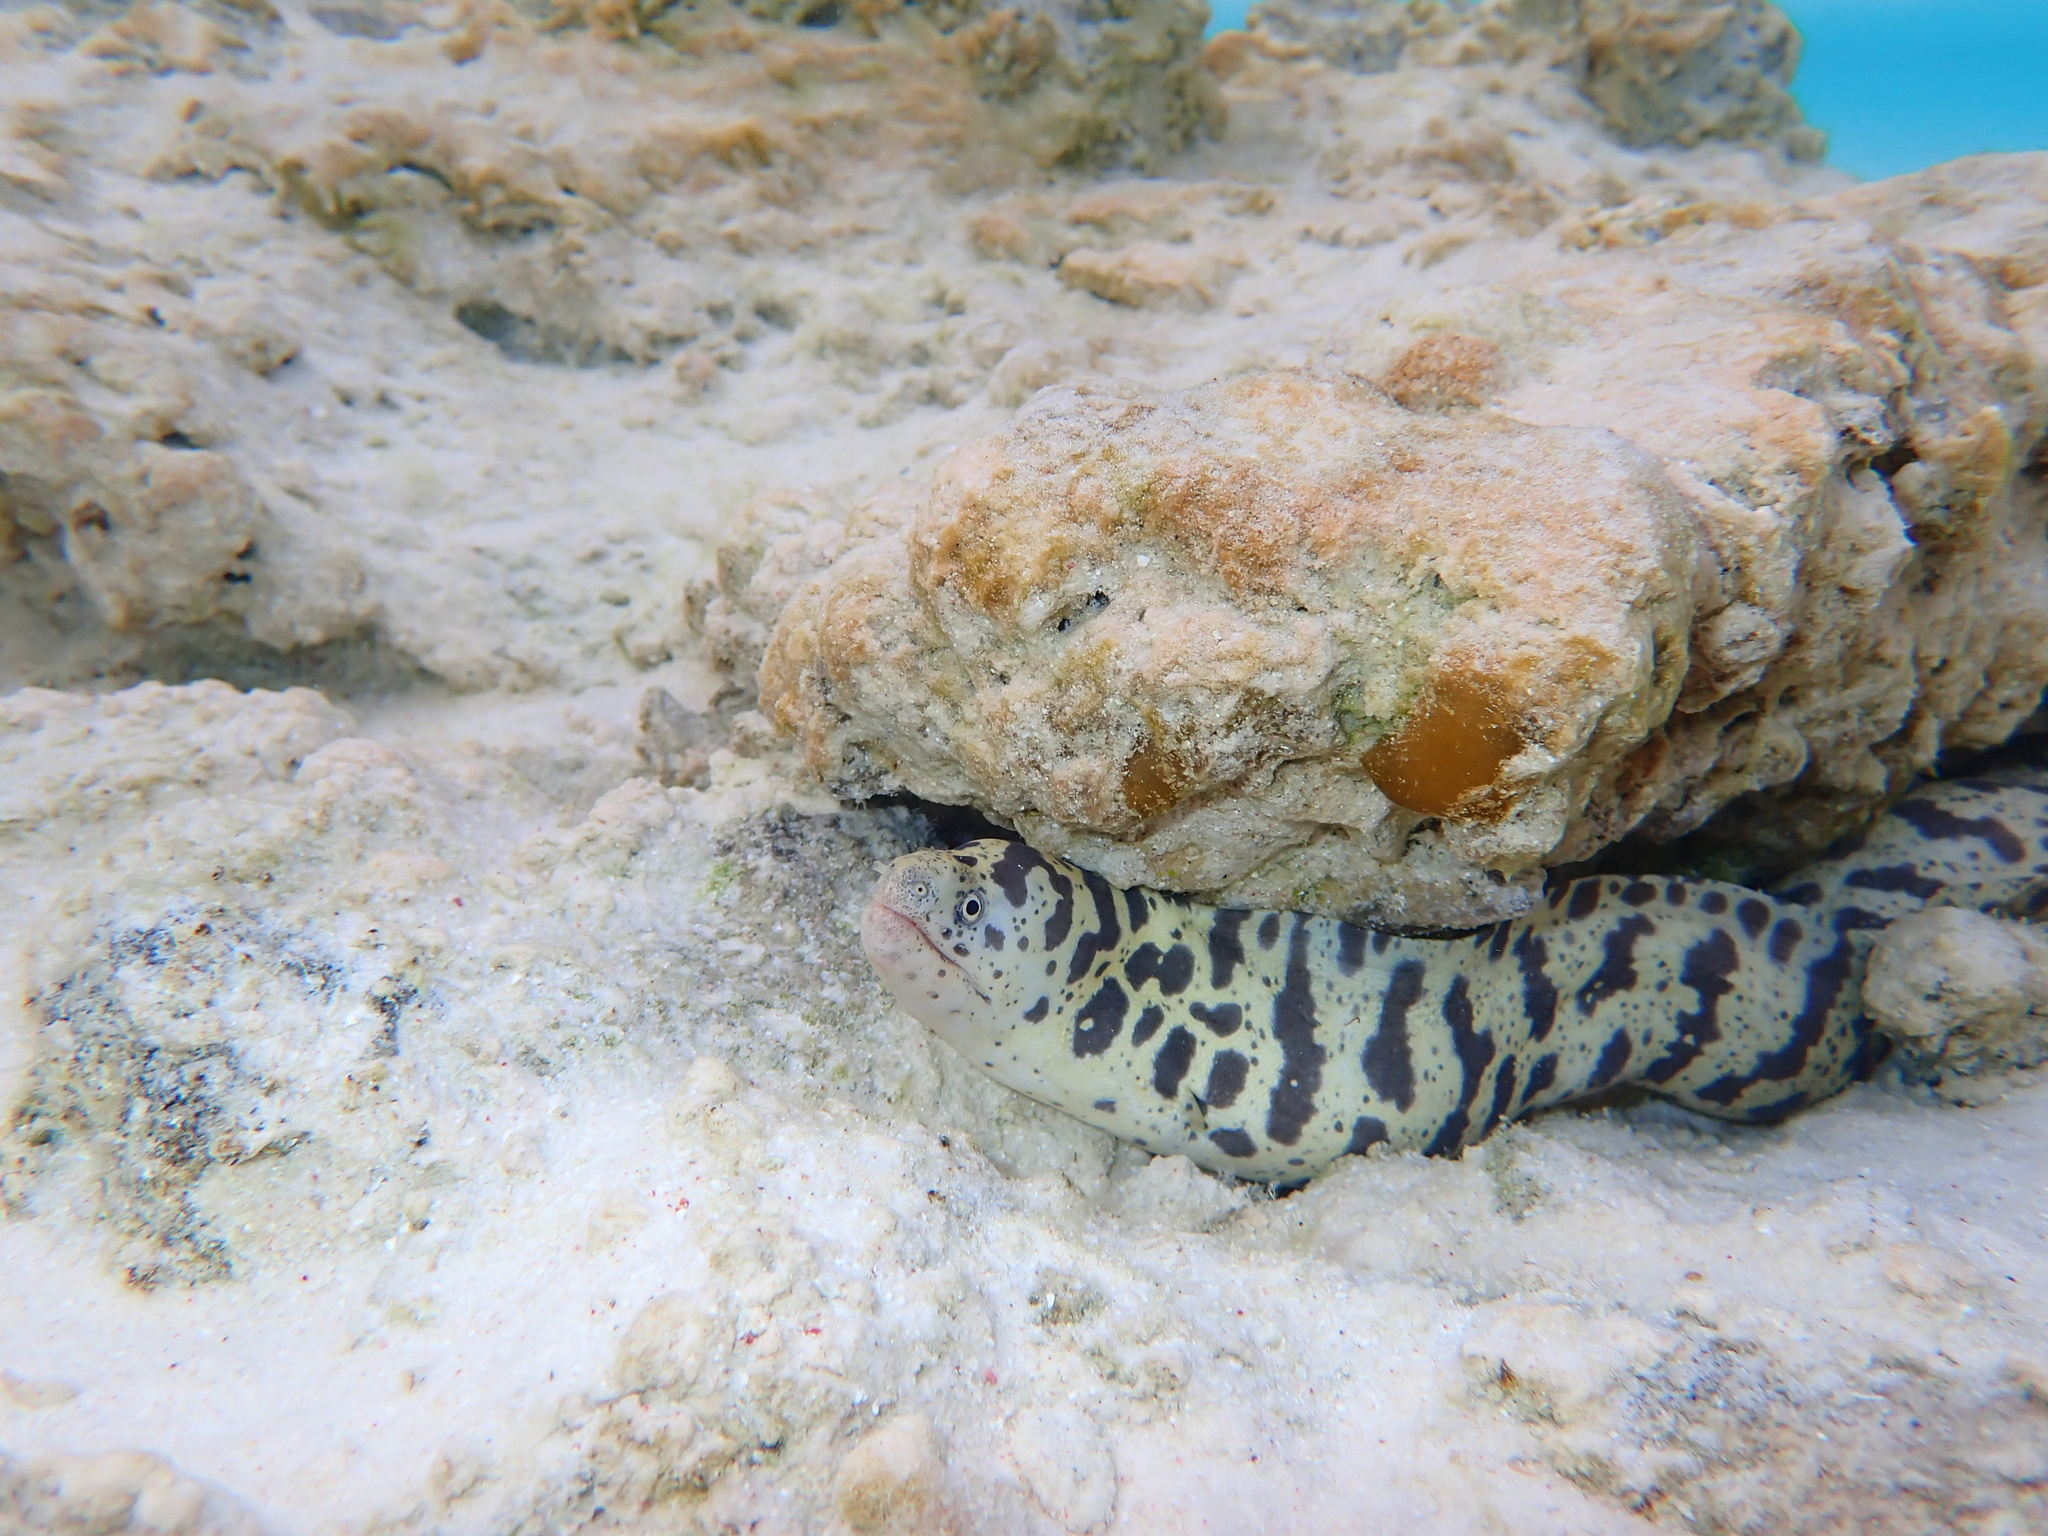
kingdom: Animalia
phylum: Chordata
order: Anguilliformes
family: Muraenidae
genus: Echidna
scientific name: Echidna catenata
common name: Chain moray
